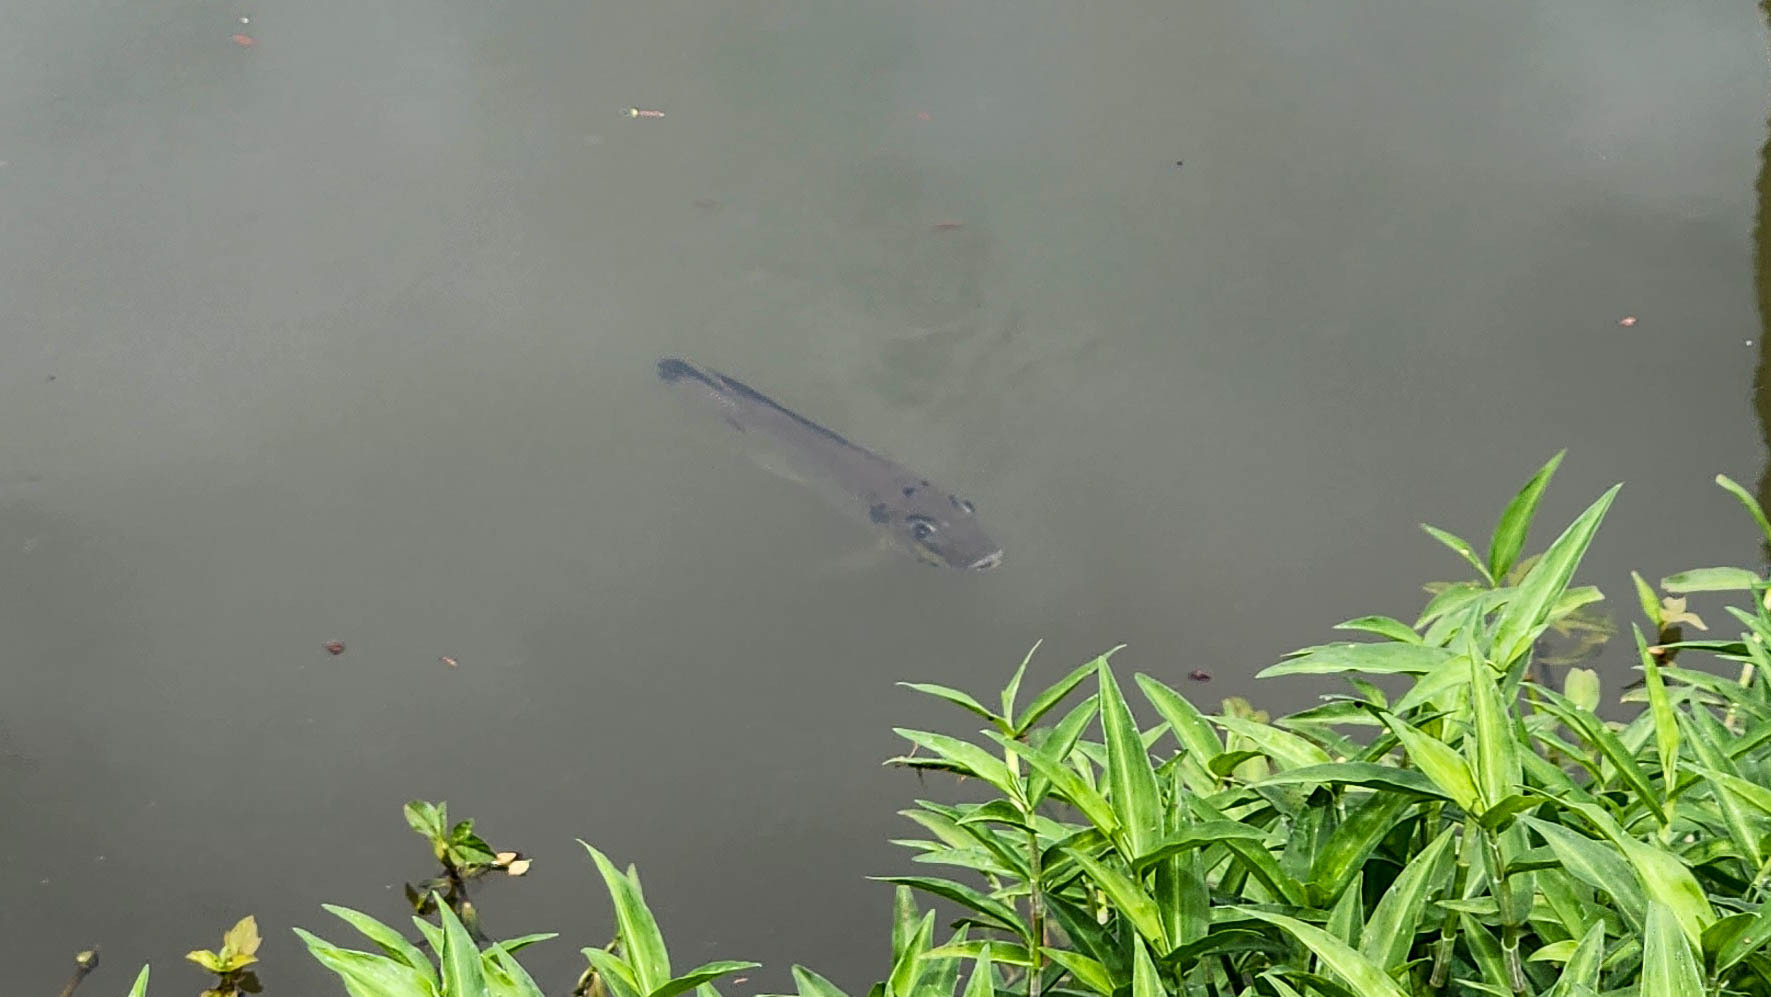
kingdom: Animalia
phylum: Chordata
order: Perciformes
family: Cichlidae
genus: Sarotherodon
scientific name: Sarotherodon melanotheron
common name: Blackchin tilapia
